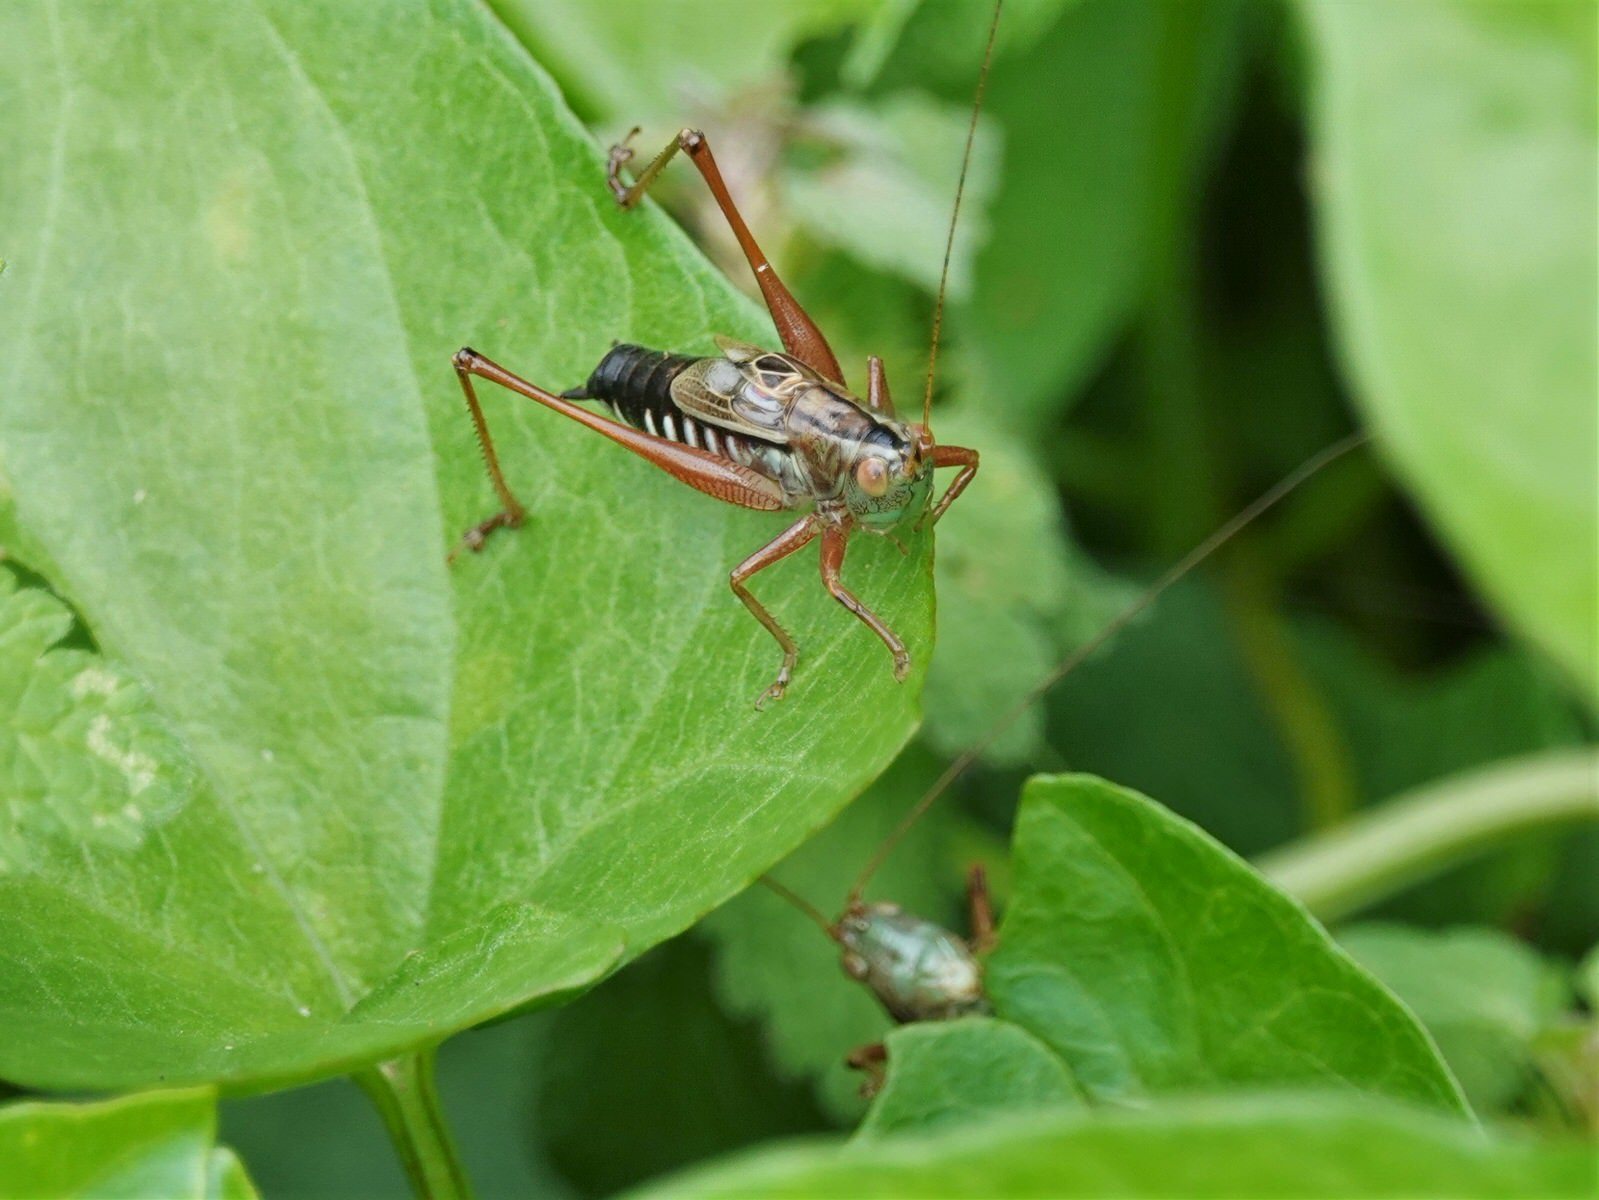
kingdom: Animalia
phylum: Arthropoda
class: Insecta
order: Orthoptera
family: Tettigoniidae
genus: Conocephalus
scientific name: Conocephalus semivittatus
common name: Blackish meadow katydid
